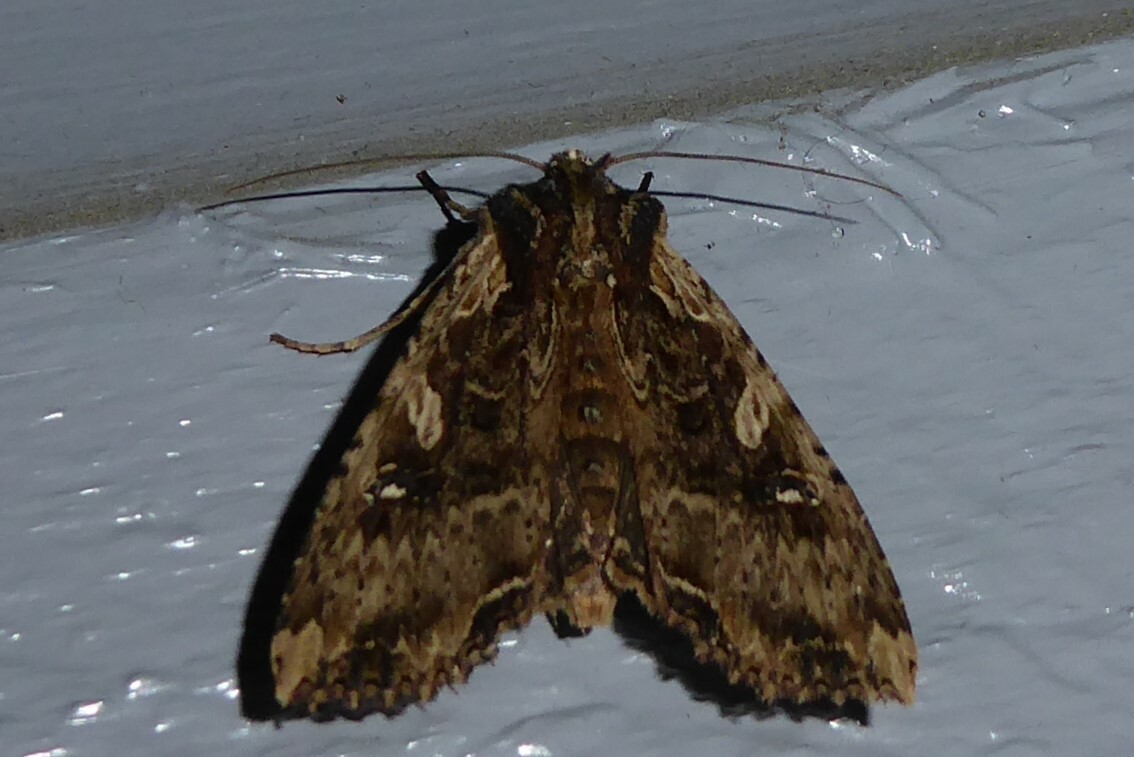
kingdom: Animalia
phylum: Arthropoda
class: Insecta
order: Lepidoptera
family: Noctuidae
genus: Meterana
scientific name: Meterana stipata
